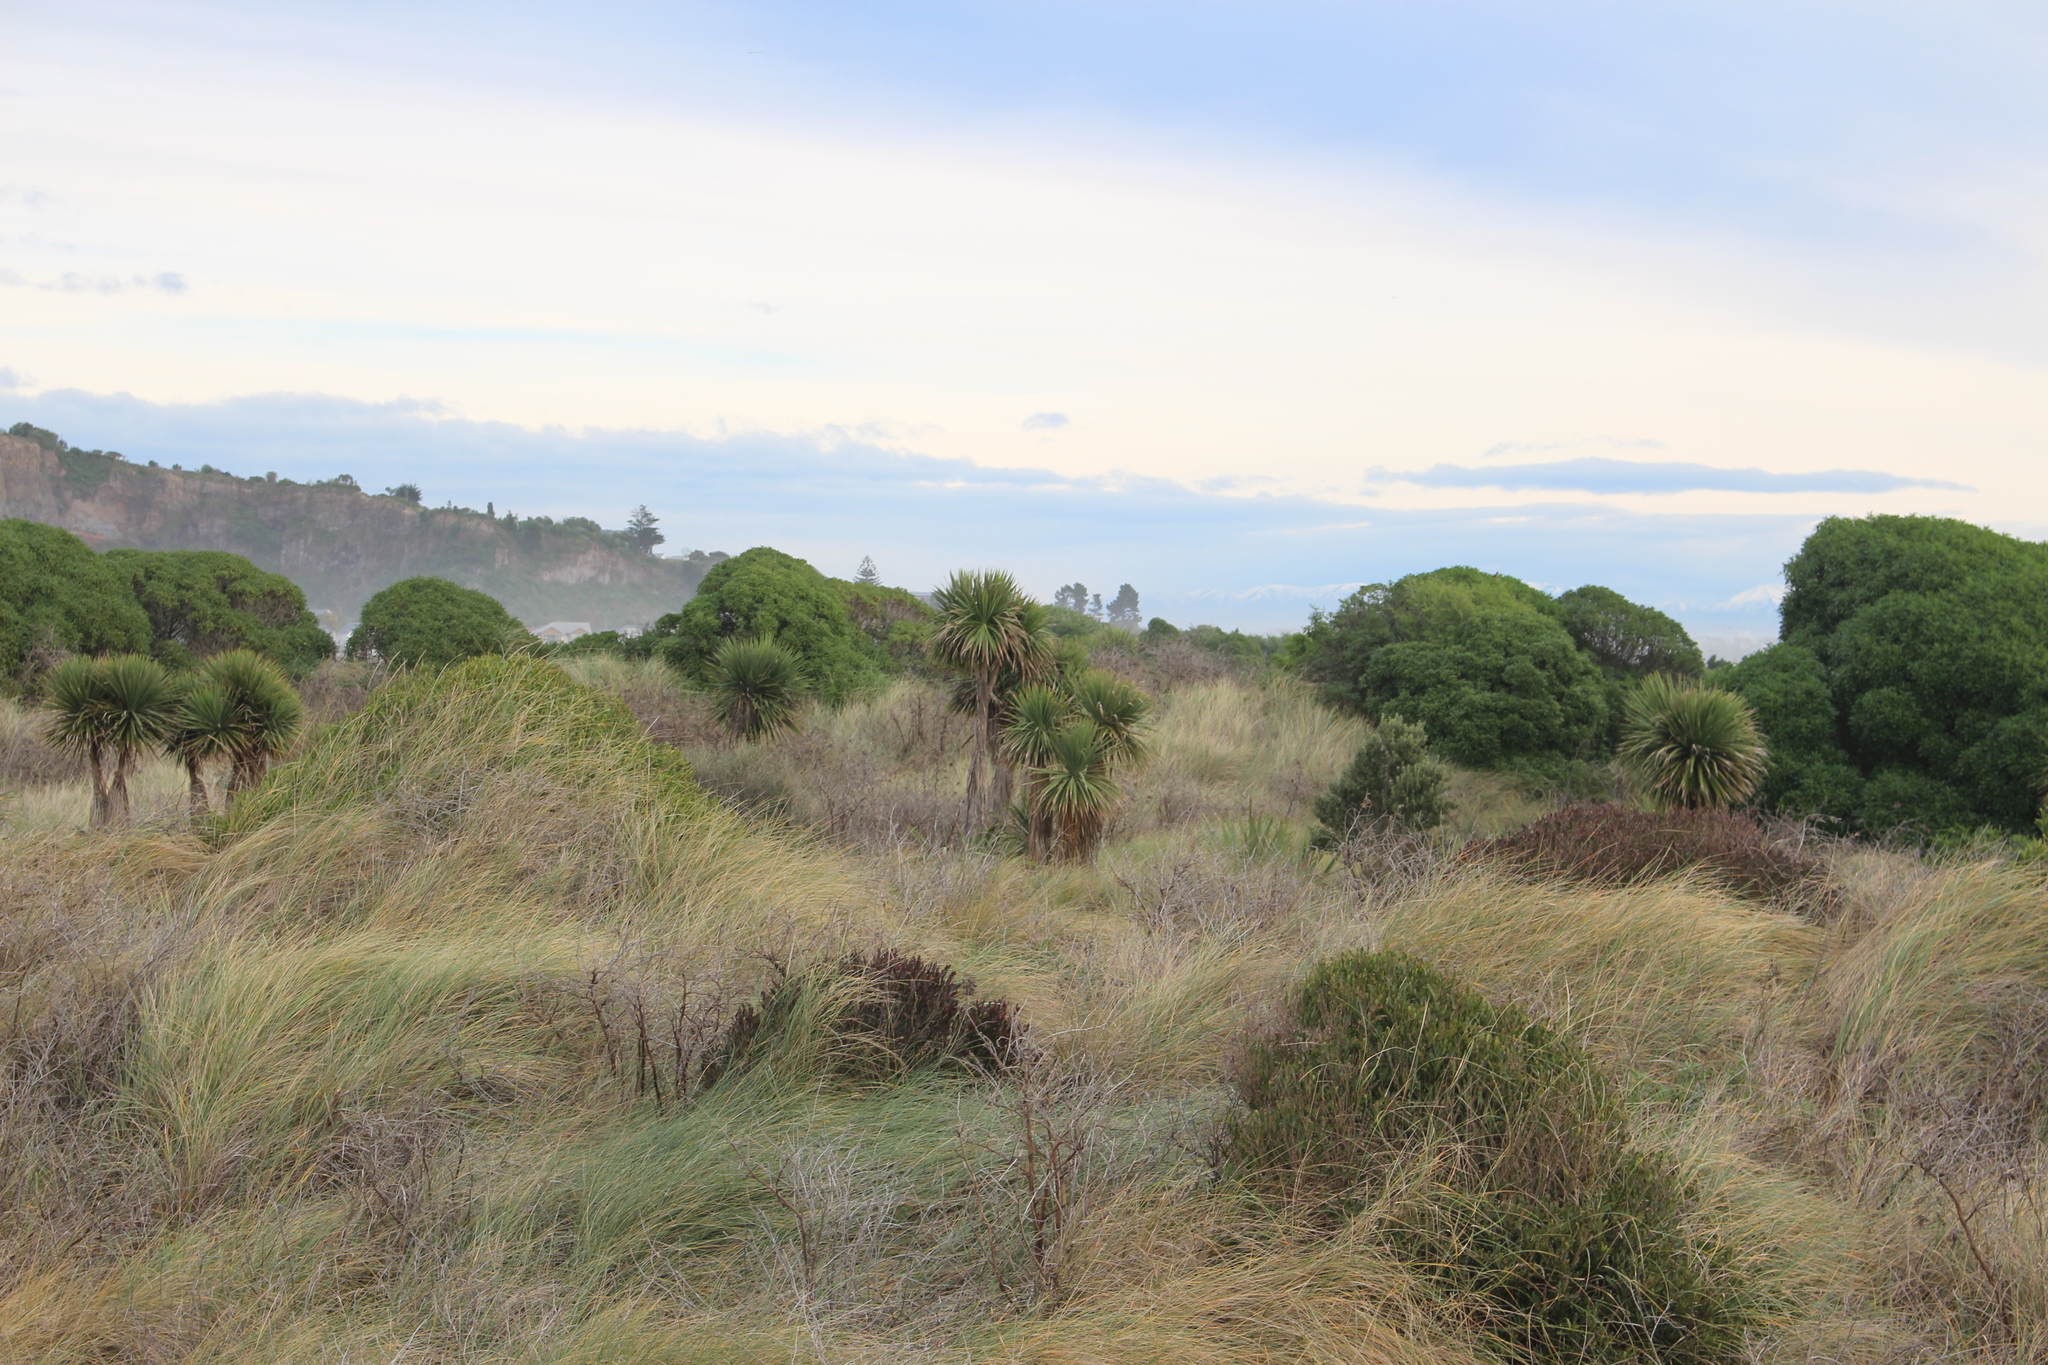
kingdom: Plantae
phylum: Tracheophyta
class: Liliopsida
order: Asparagales
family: Asparagaceae
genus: Cordyline
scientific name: Cordyline australis
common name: Cabbage-palm
